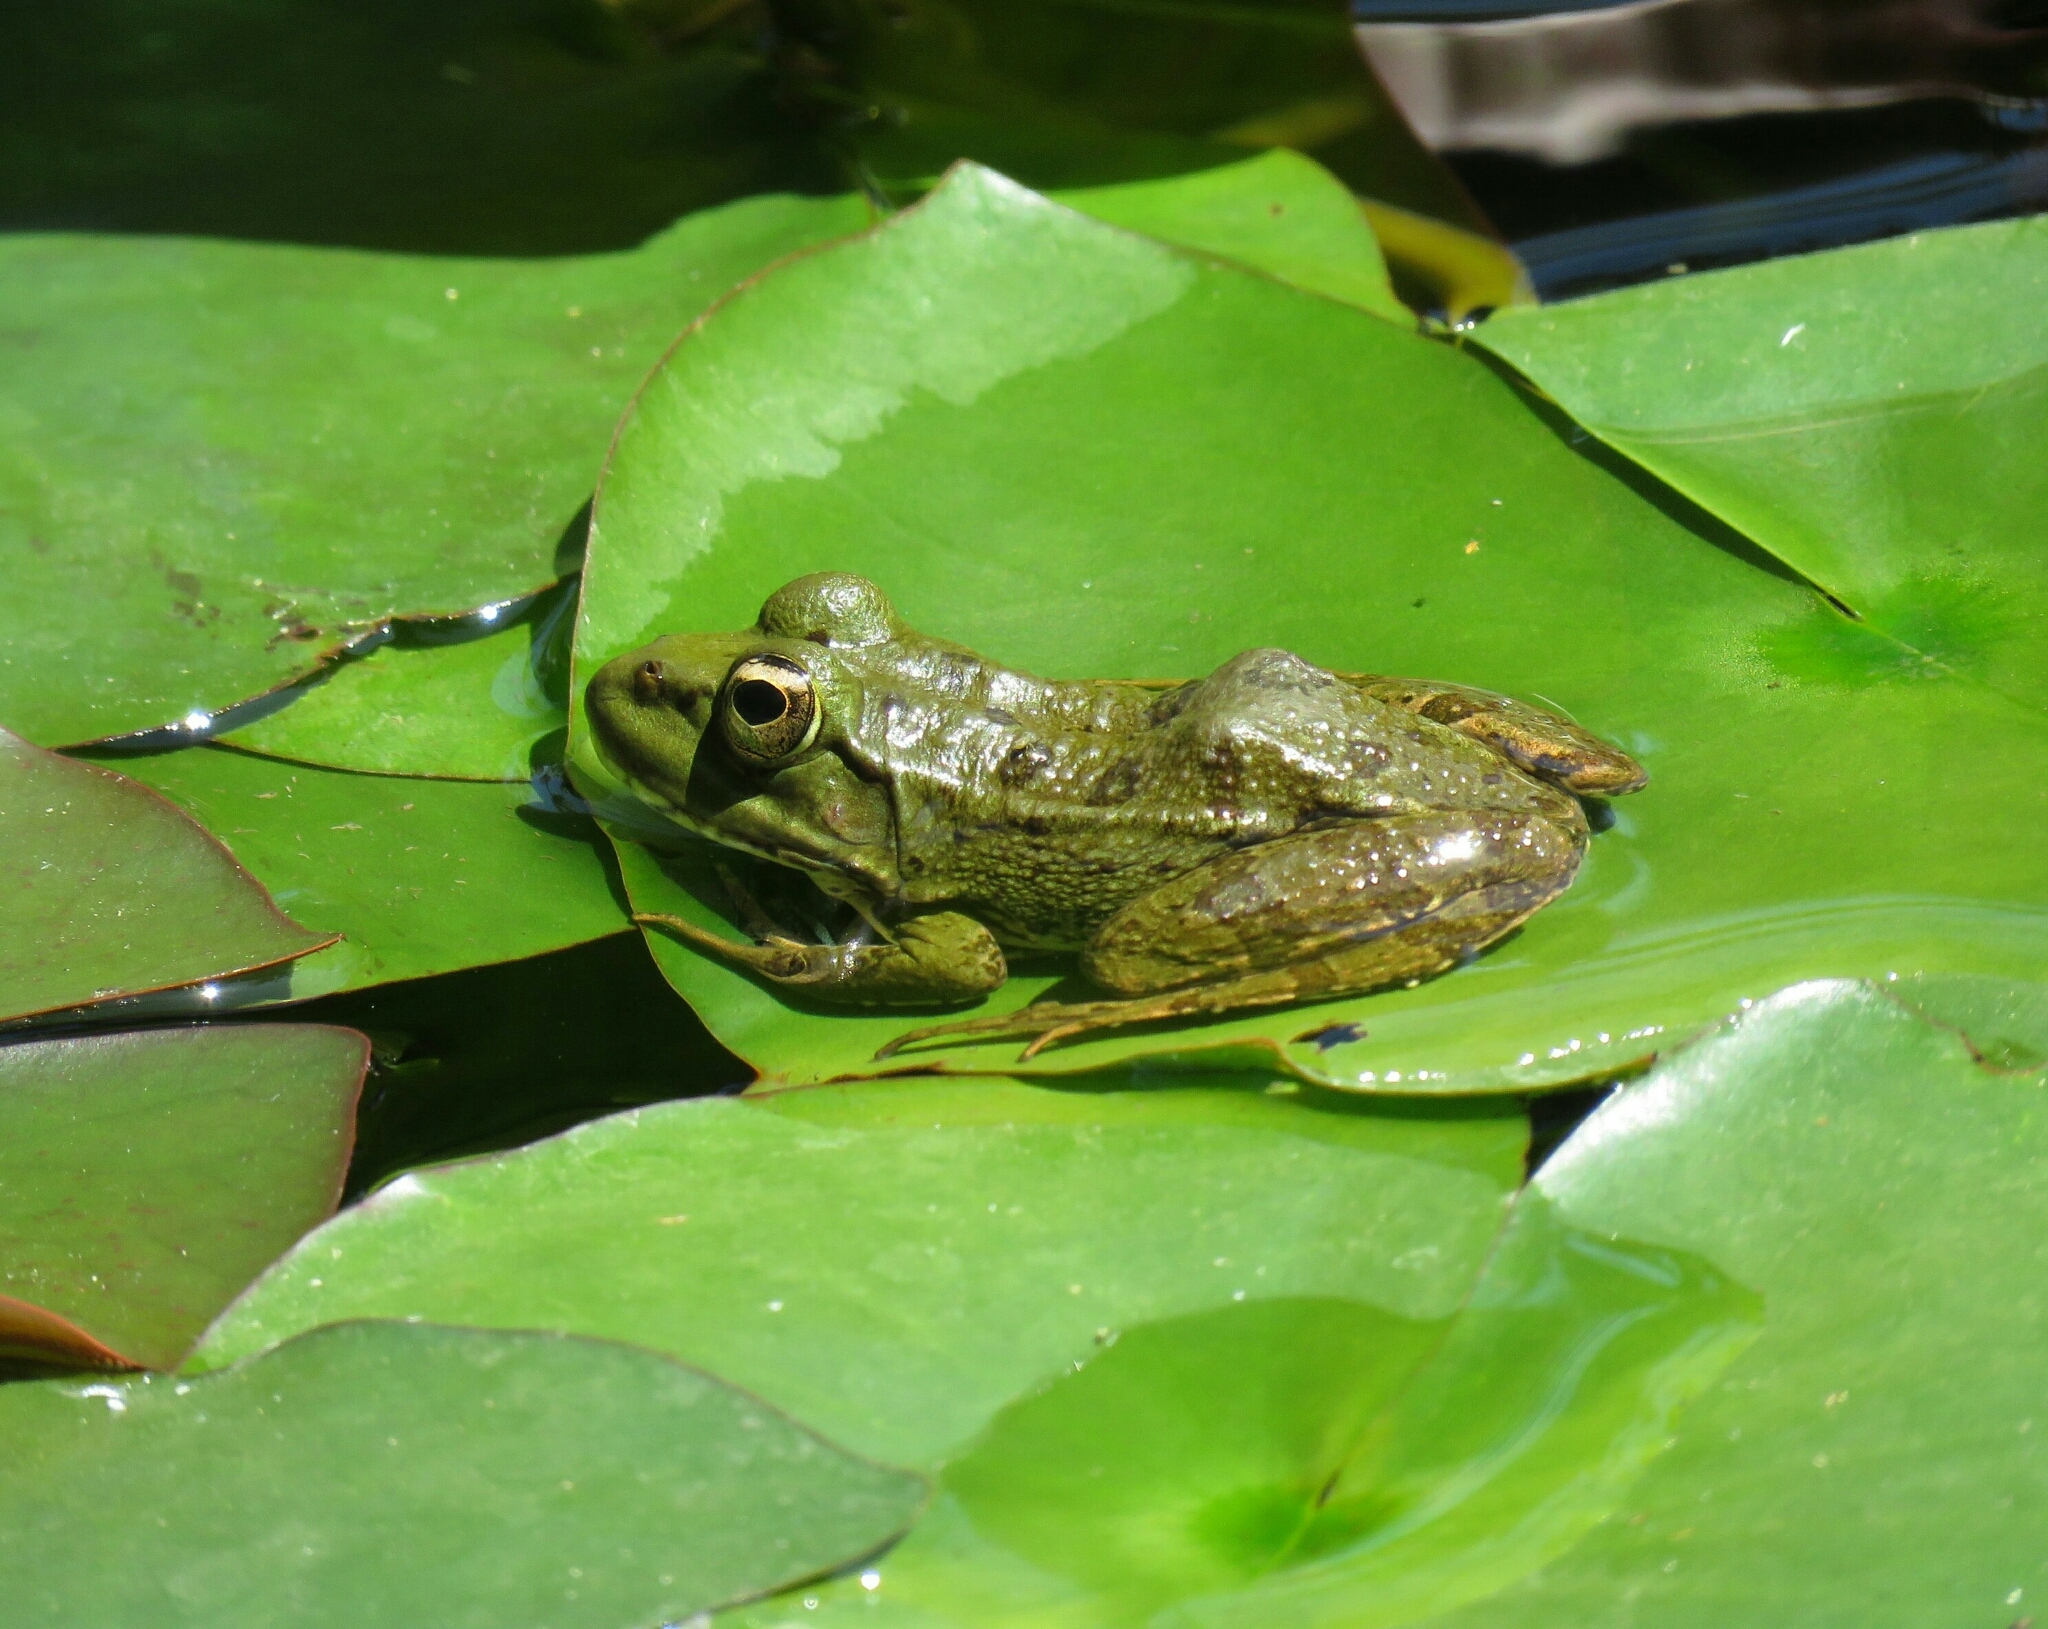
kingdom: Animalia
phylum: Chordata
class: Amphibia
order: Anura
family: Ranidae
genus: Pelophylax
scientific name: Pelophylax saharicus
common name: Sahara frog
